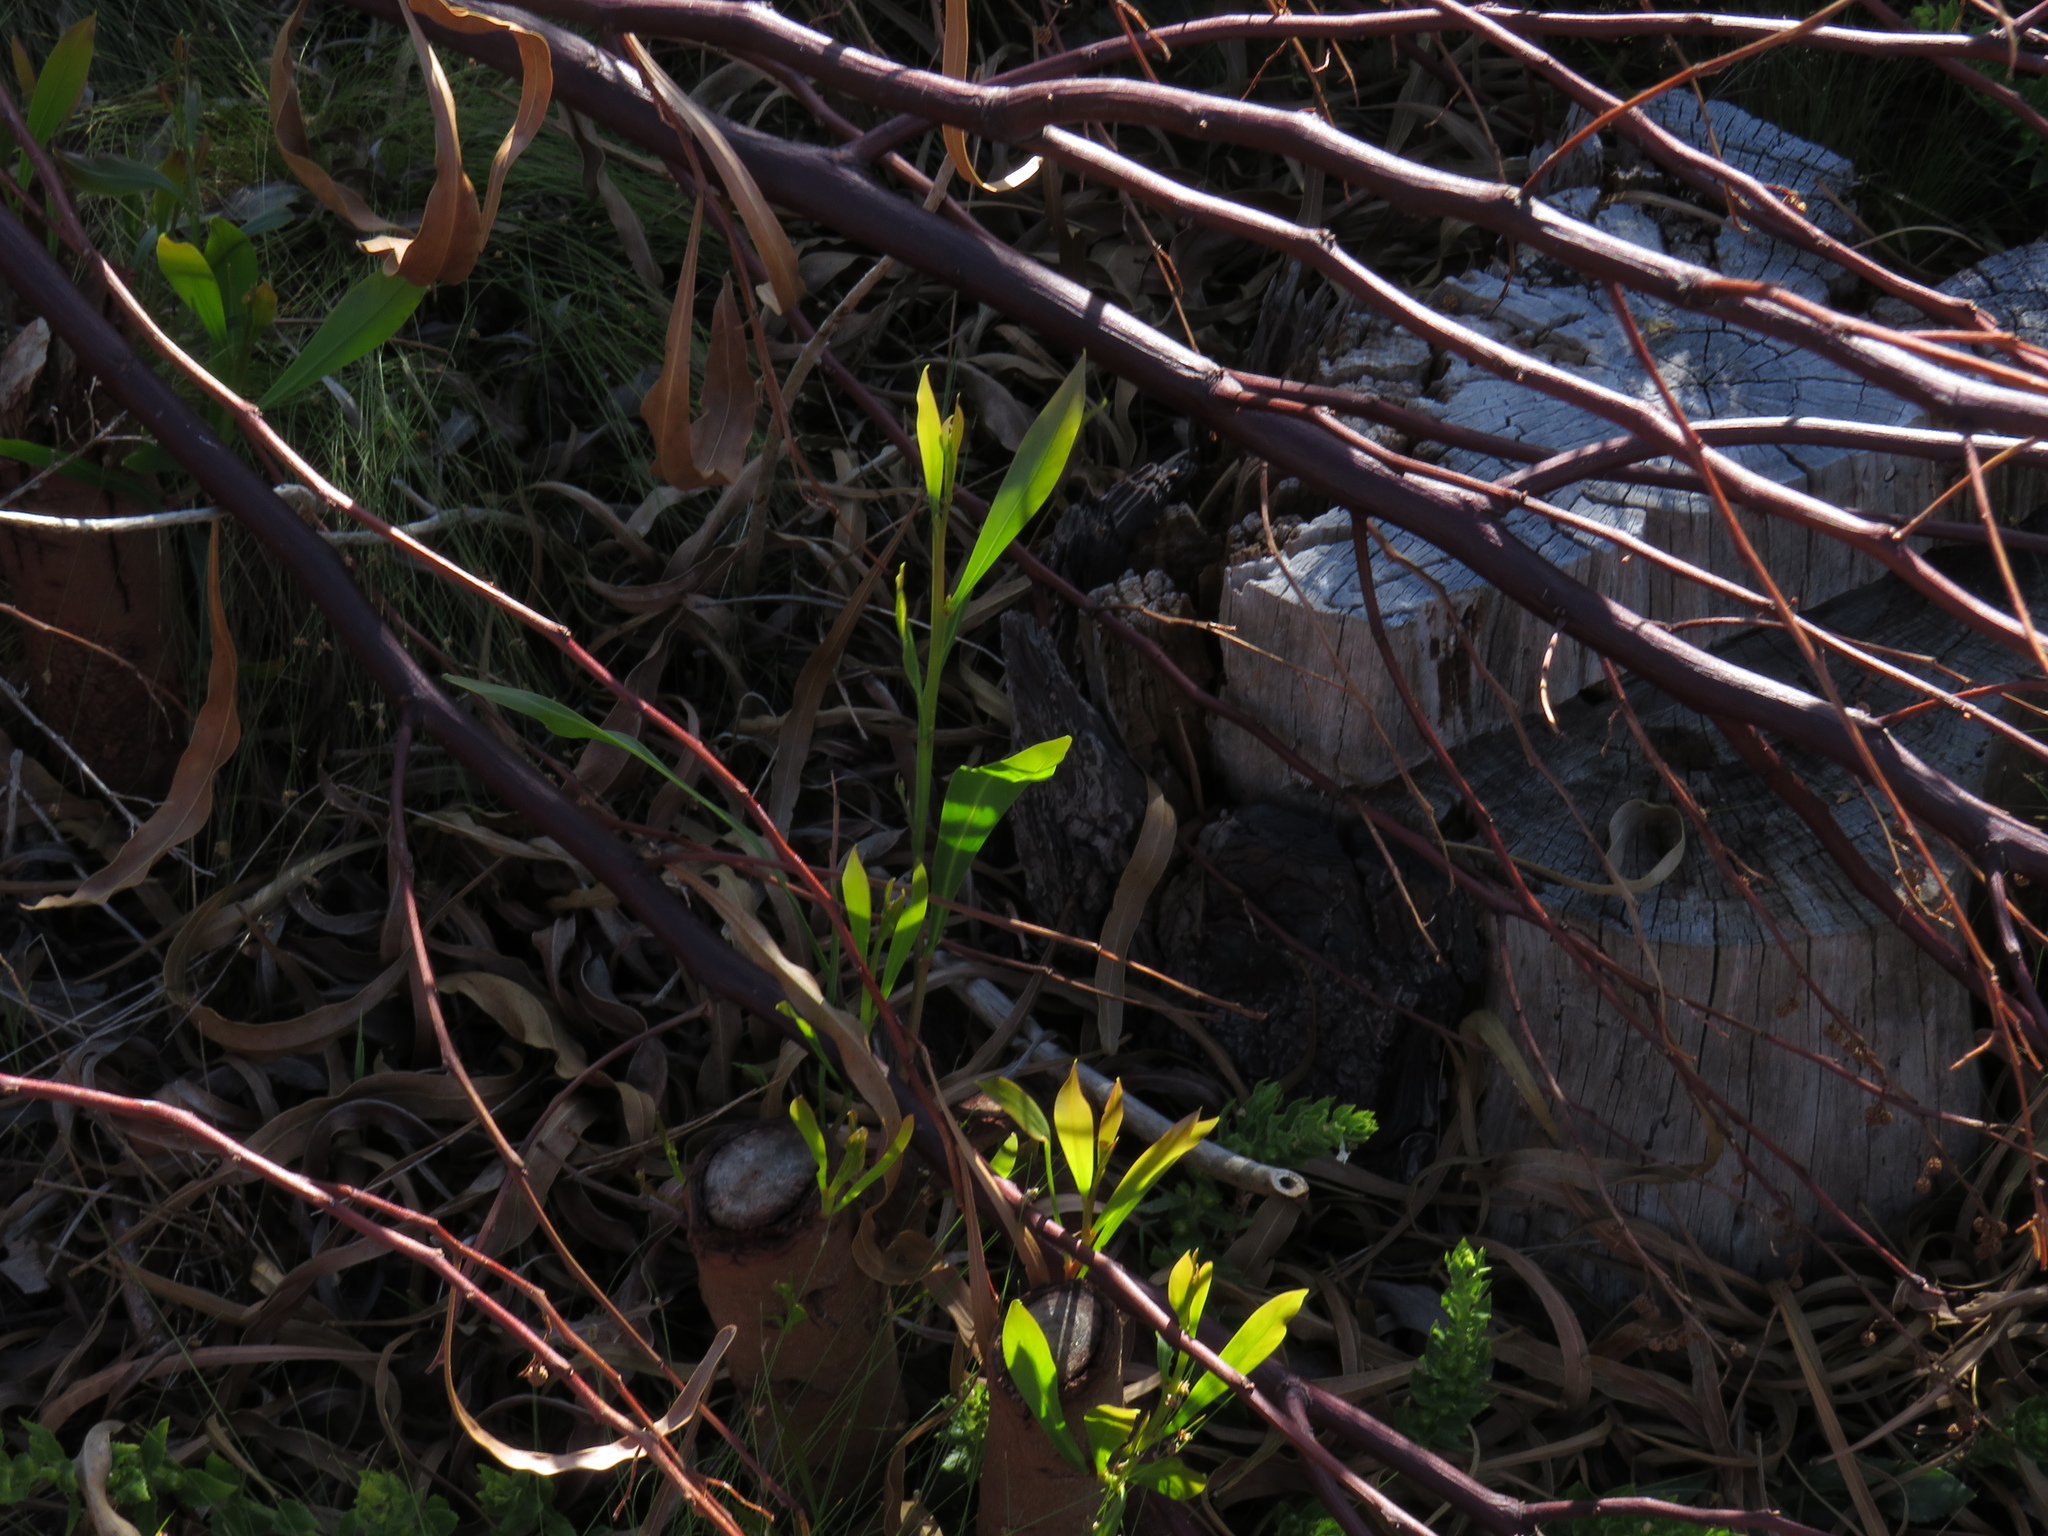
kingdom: Plantae
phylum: Tracheophyta
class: Magnoliopsida
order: Fabales
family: Fabaceae
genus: Acacia
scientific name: Acacia saligna
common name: Orange wattle
